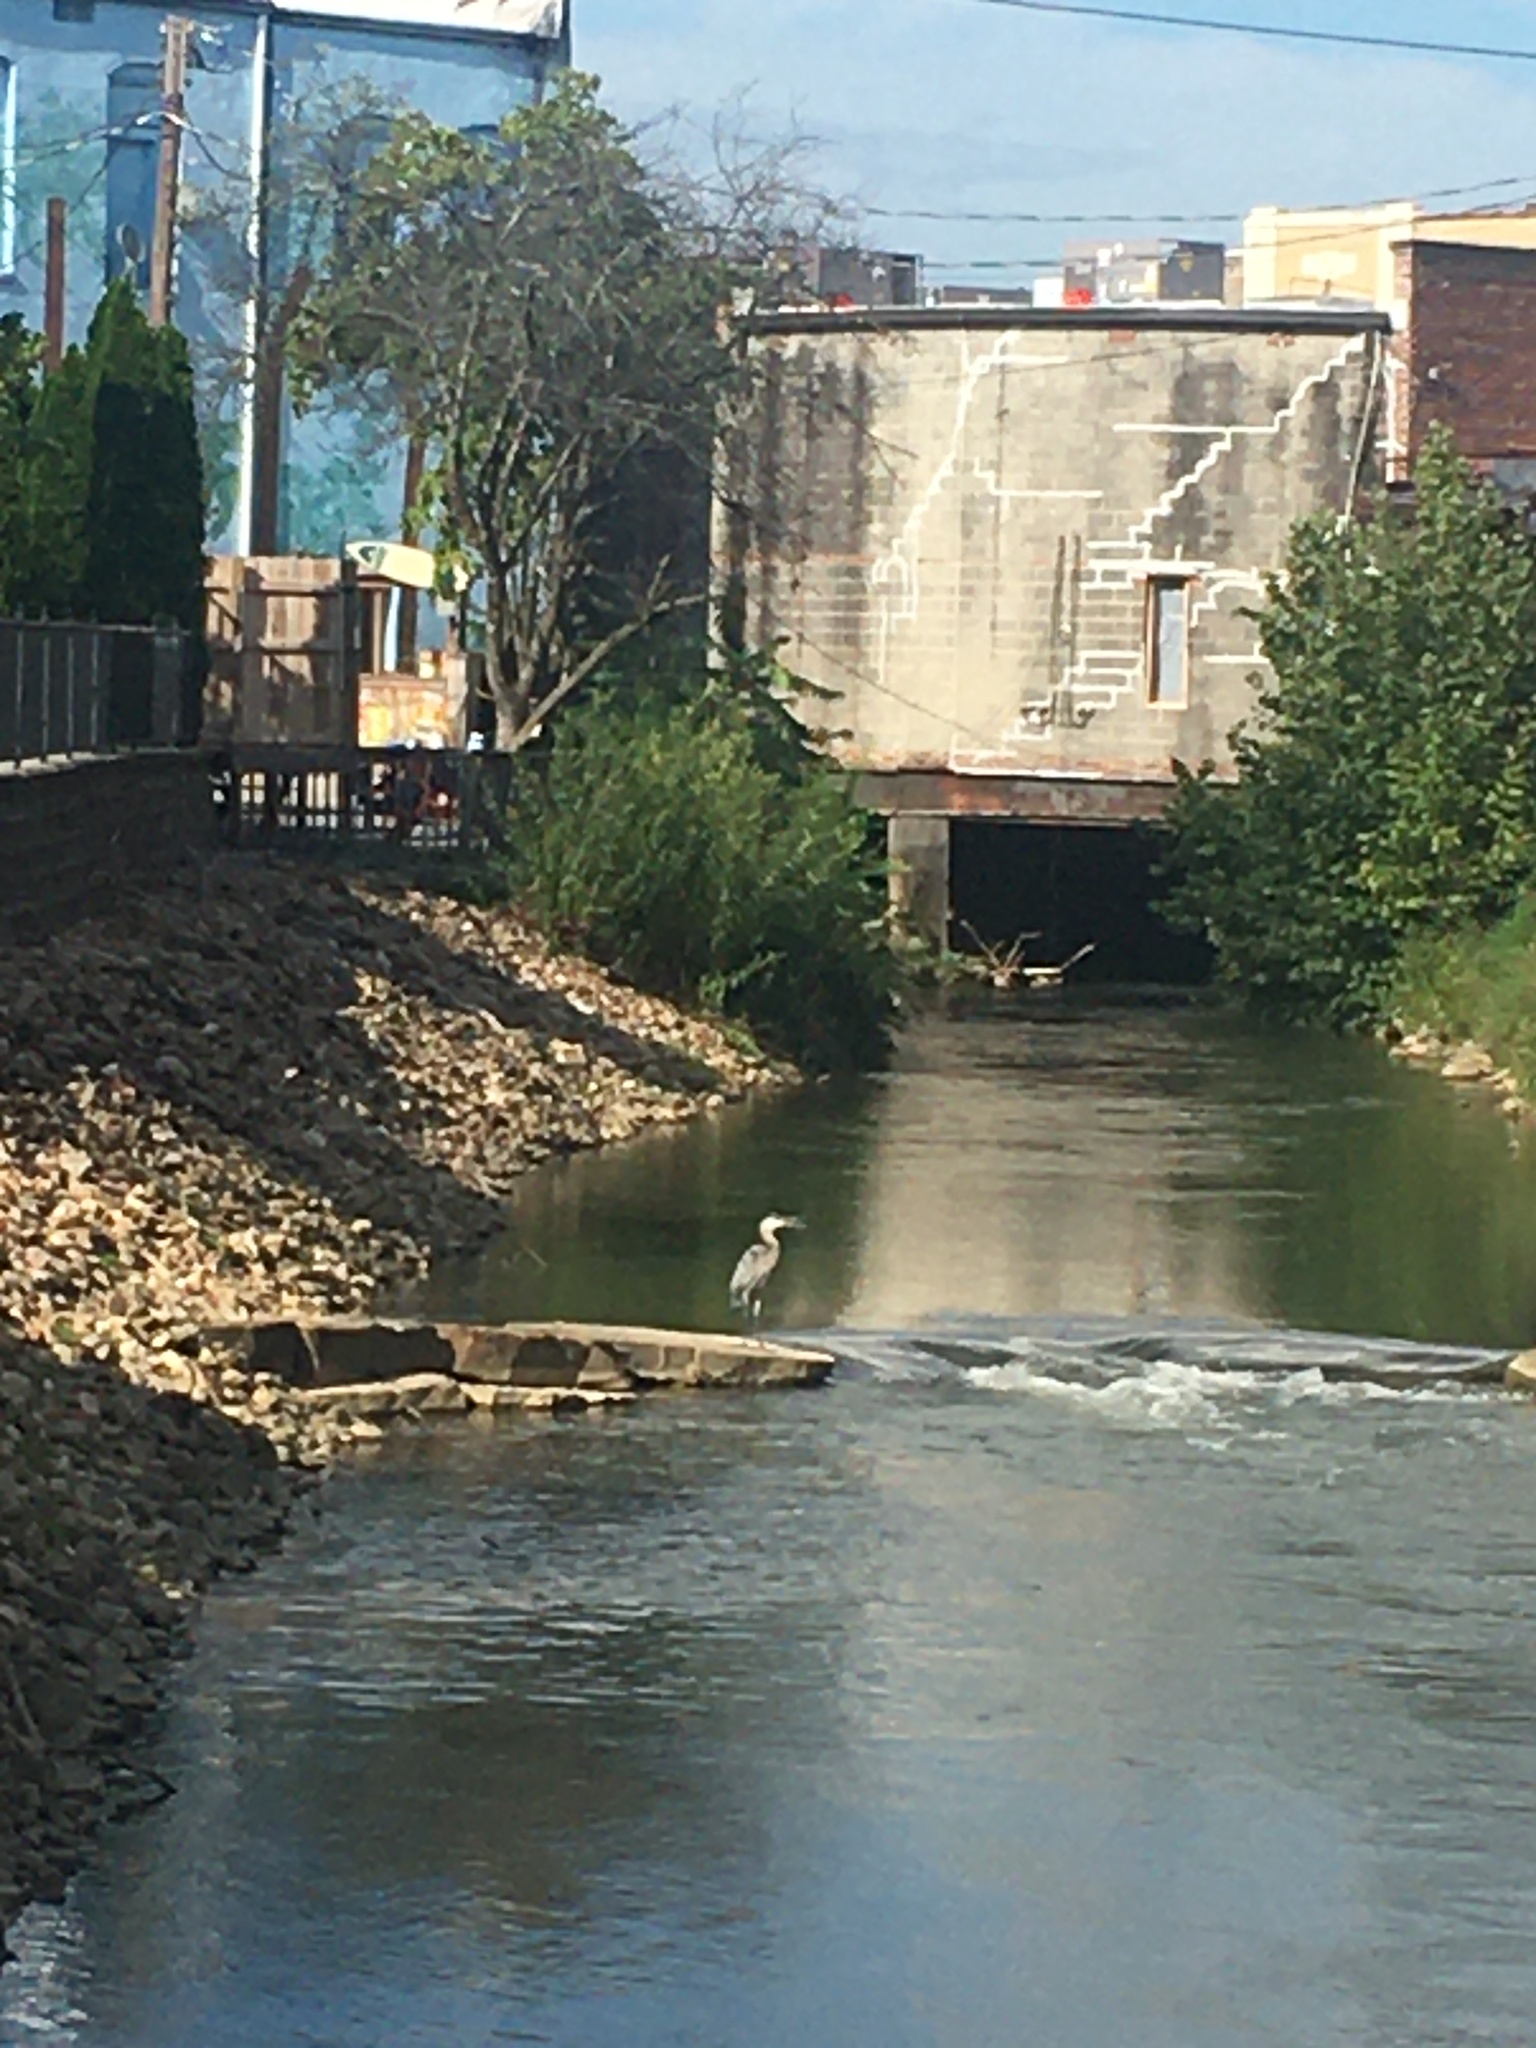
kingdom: Animalia
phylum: Chordata
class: Aves
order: Pelecaniformes
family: Ardeidae
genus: Ardea
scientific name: Ardea herodias
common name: Great blue heron
